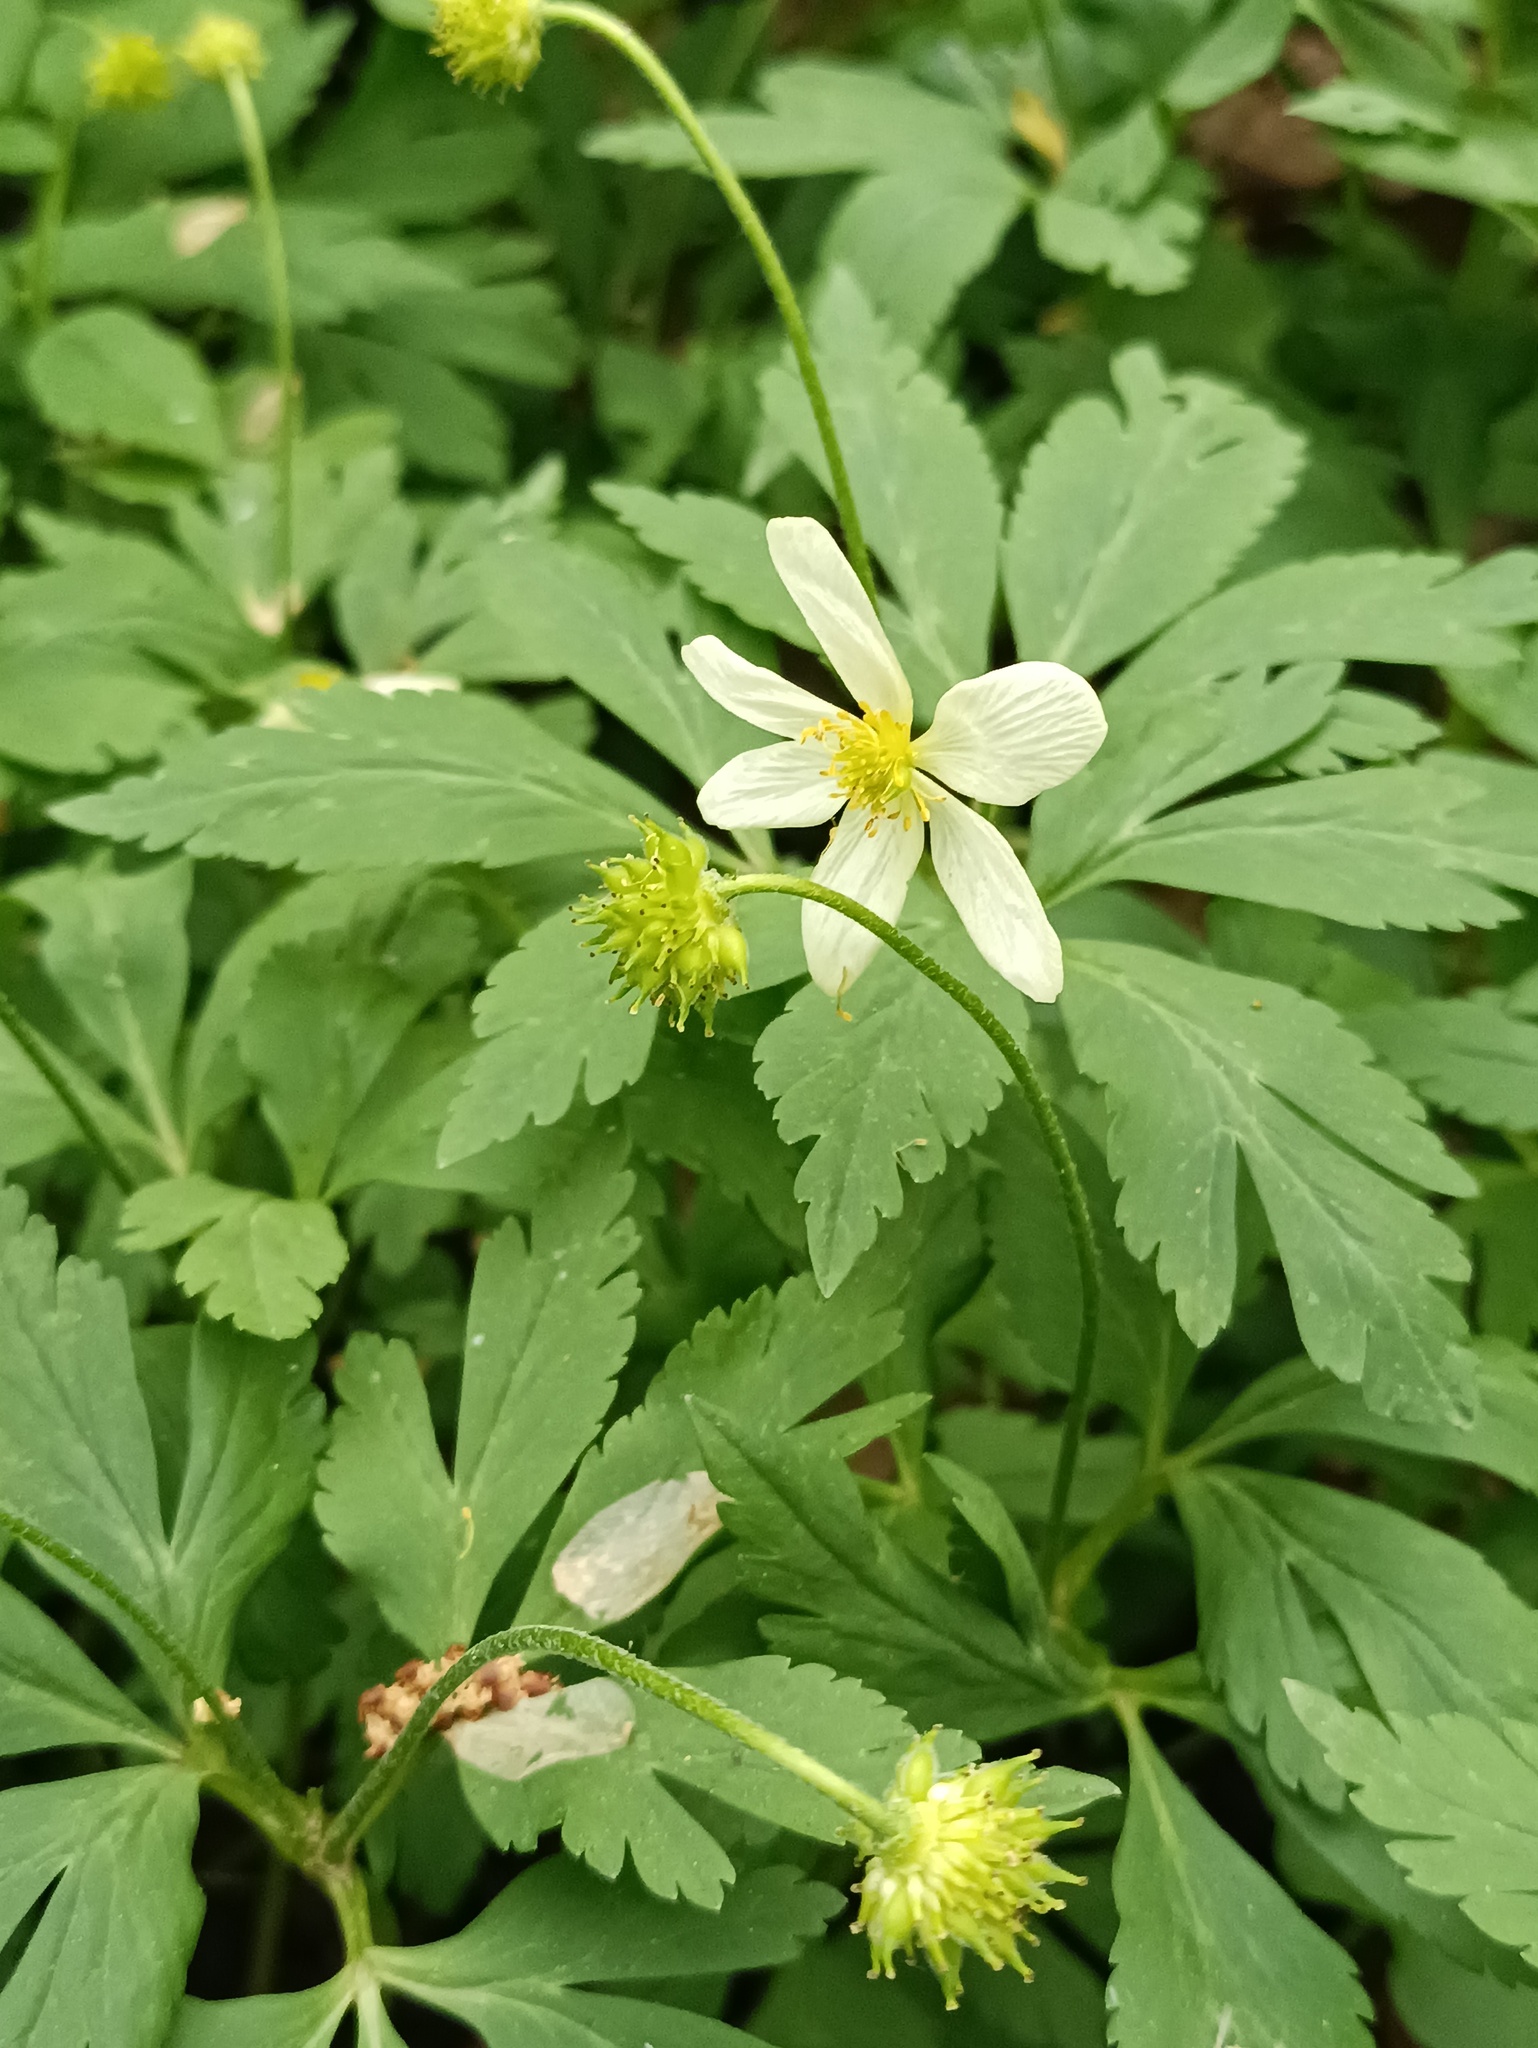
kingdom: Plantae
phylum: Tracheophyta
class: Magnoliopsida
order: Ranunculales
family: Ranunculaceae
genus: Anemone
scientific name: Anemone altaica
